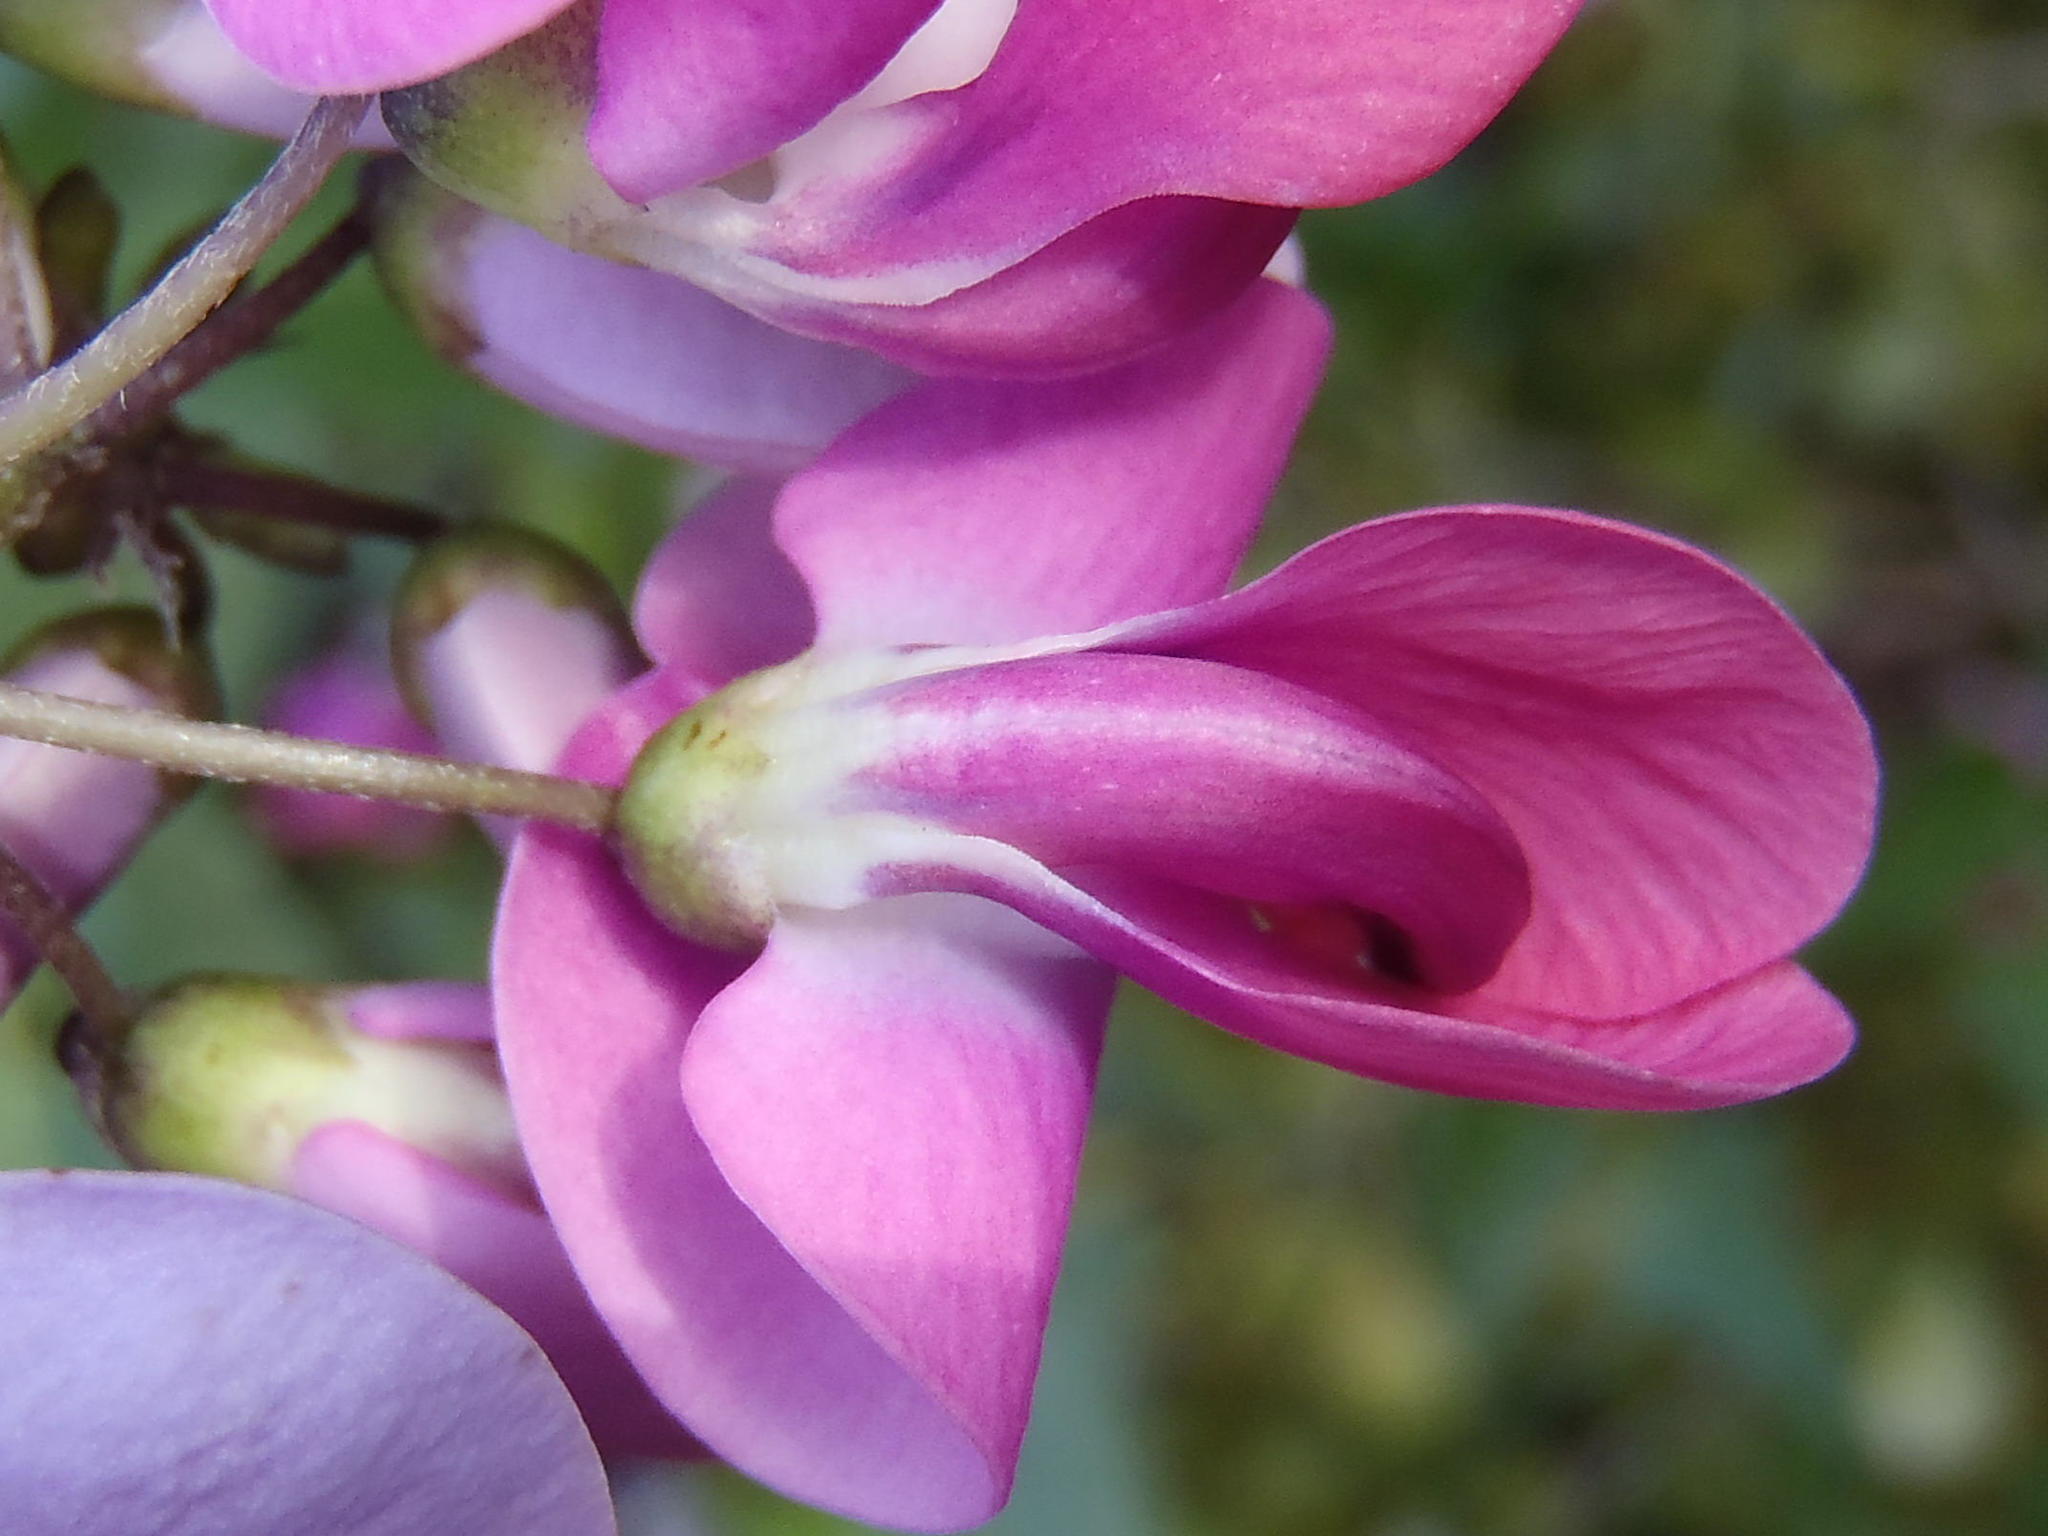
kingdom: Plantae
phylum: Tracheophyta
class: Magnoliopsida
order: Fabales
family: Fabaceae
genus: Dipogon
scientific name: Dipogon lignosus
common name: Okie bean
